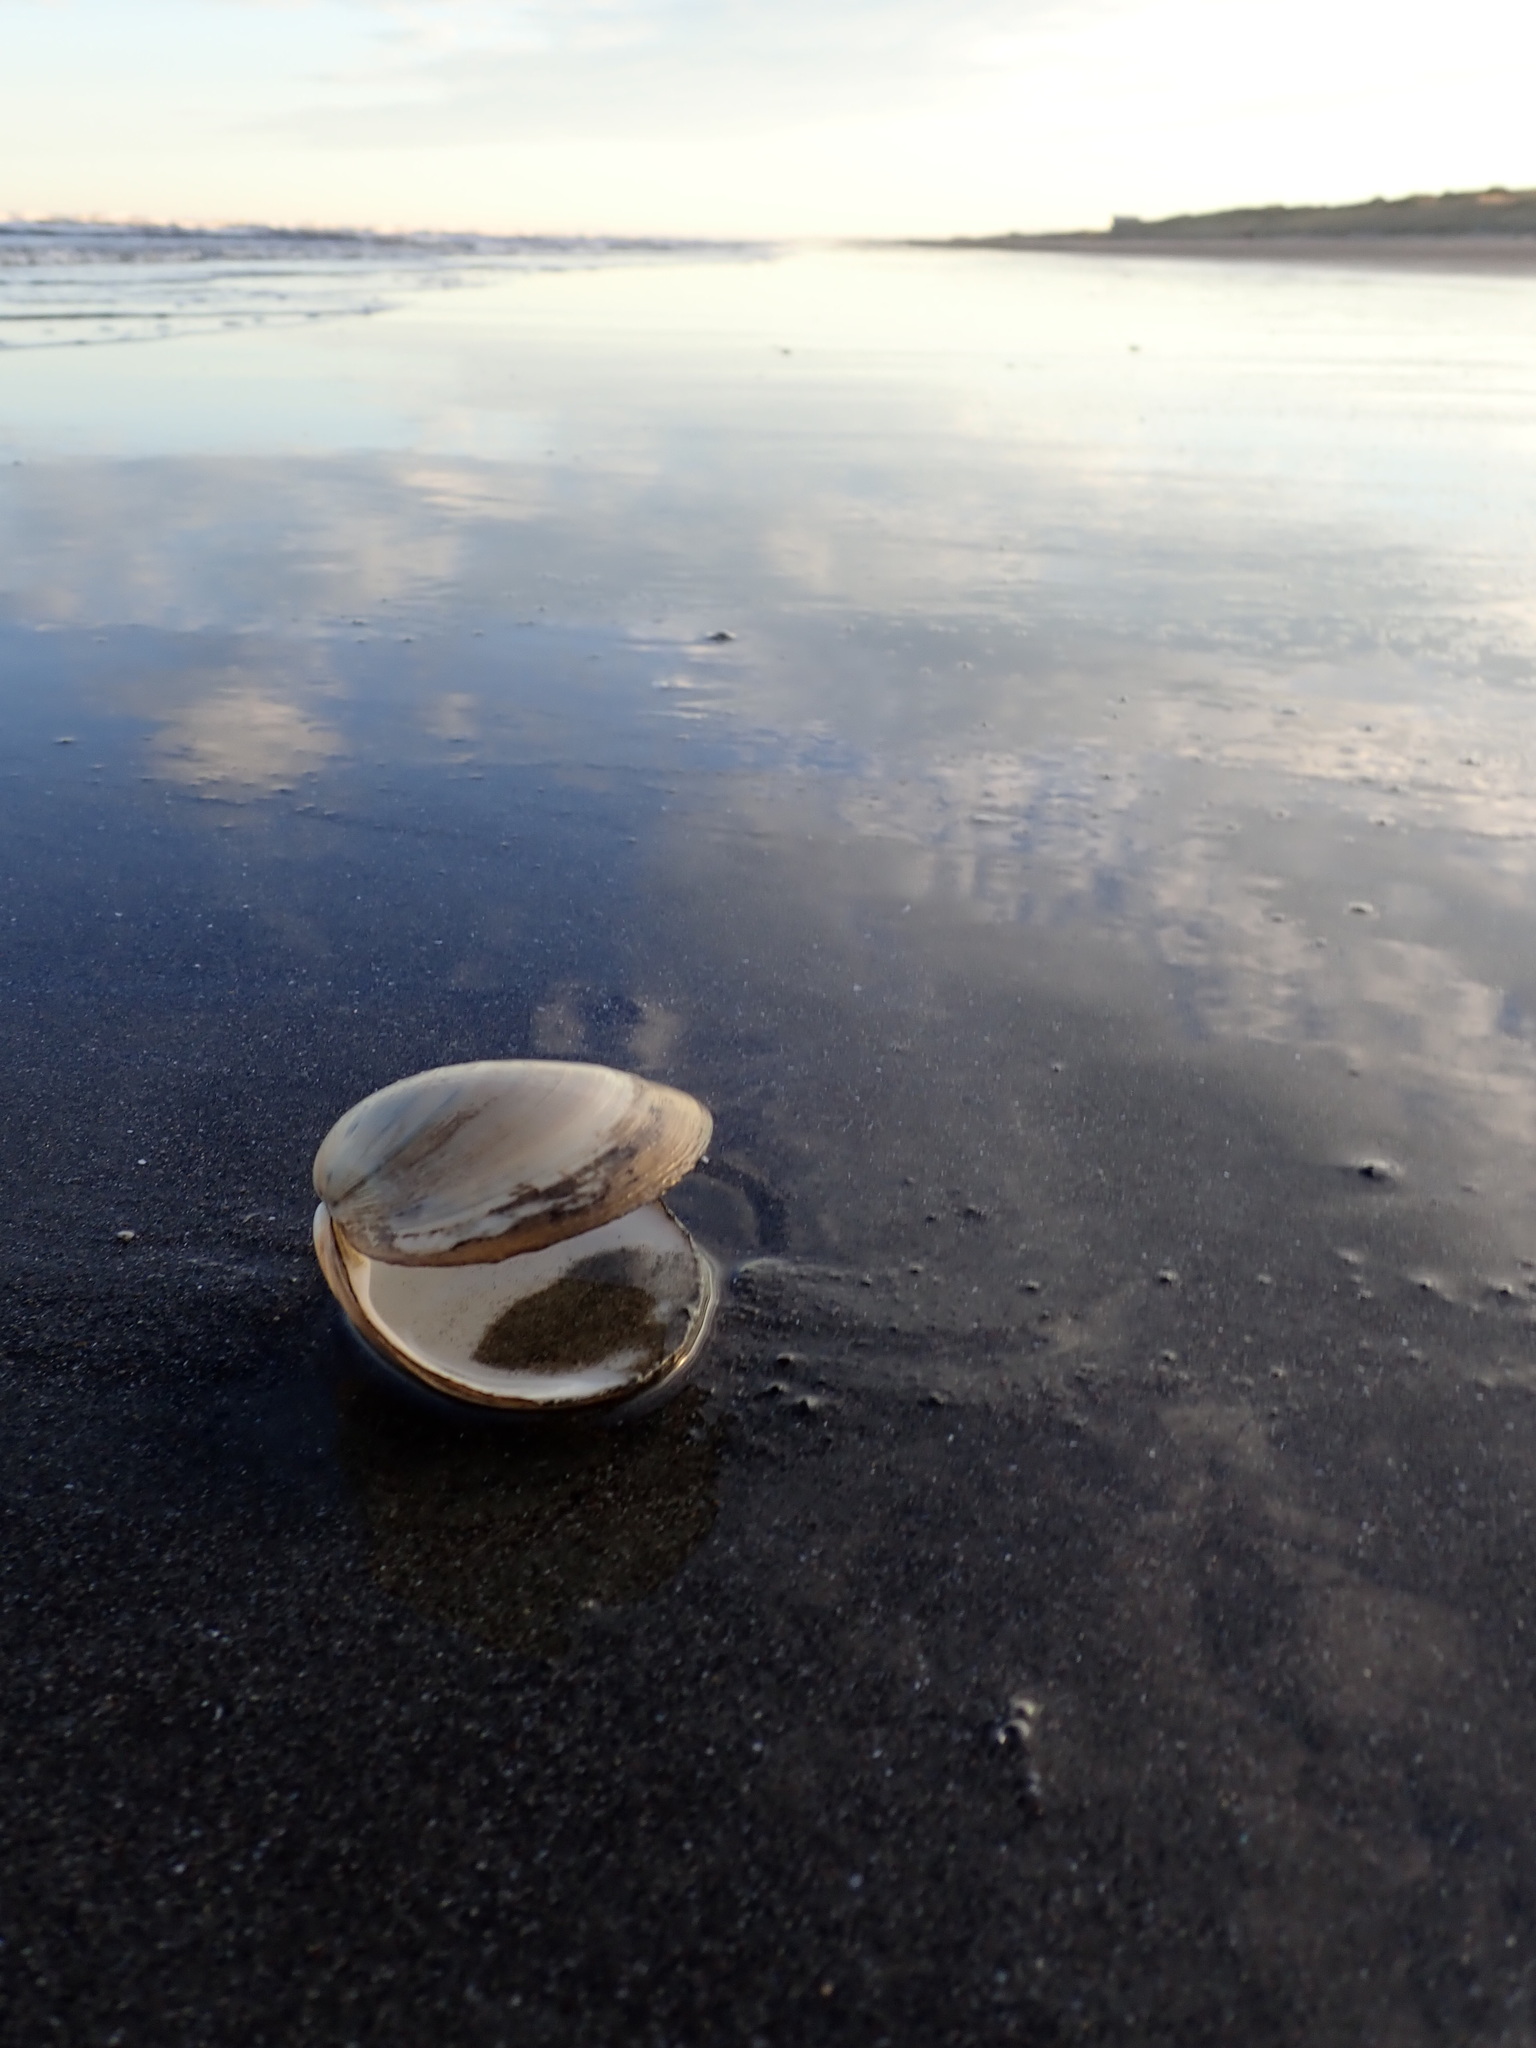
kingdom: Animalia
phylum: Mollusca
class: Bivalvia
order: Venerida
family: Mactridae
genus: Spisula
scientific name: Spisula discors
